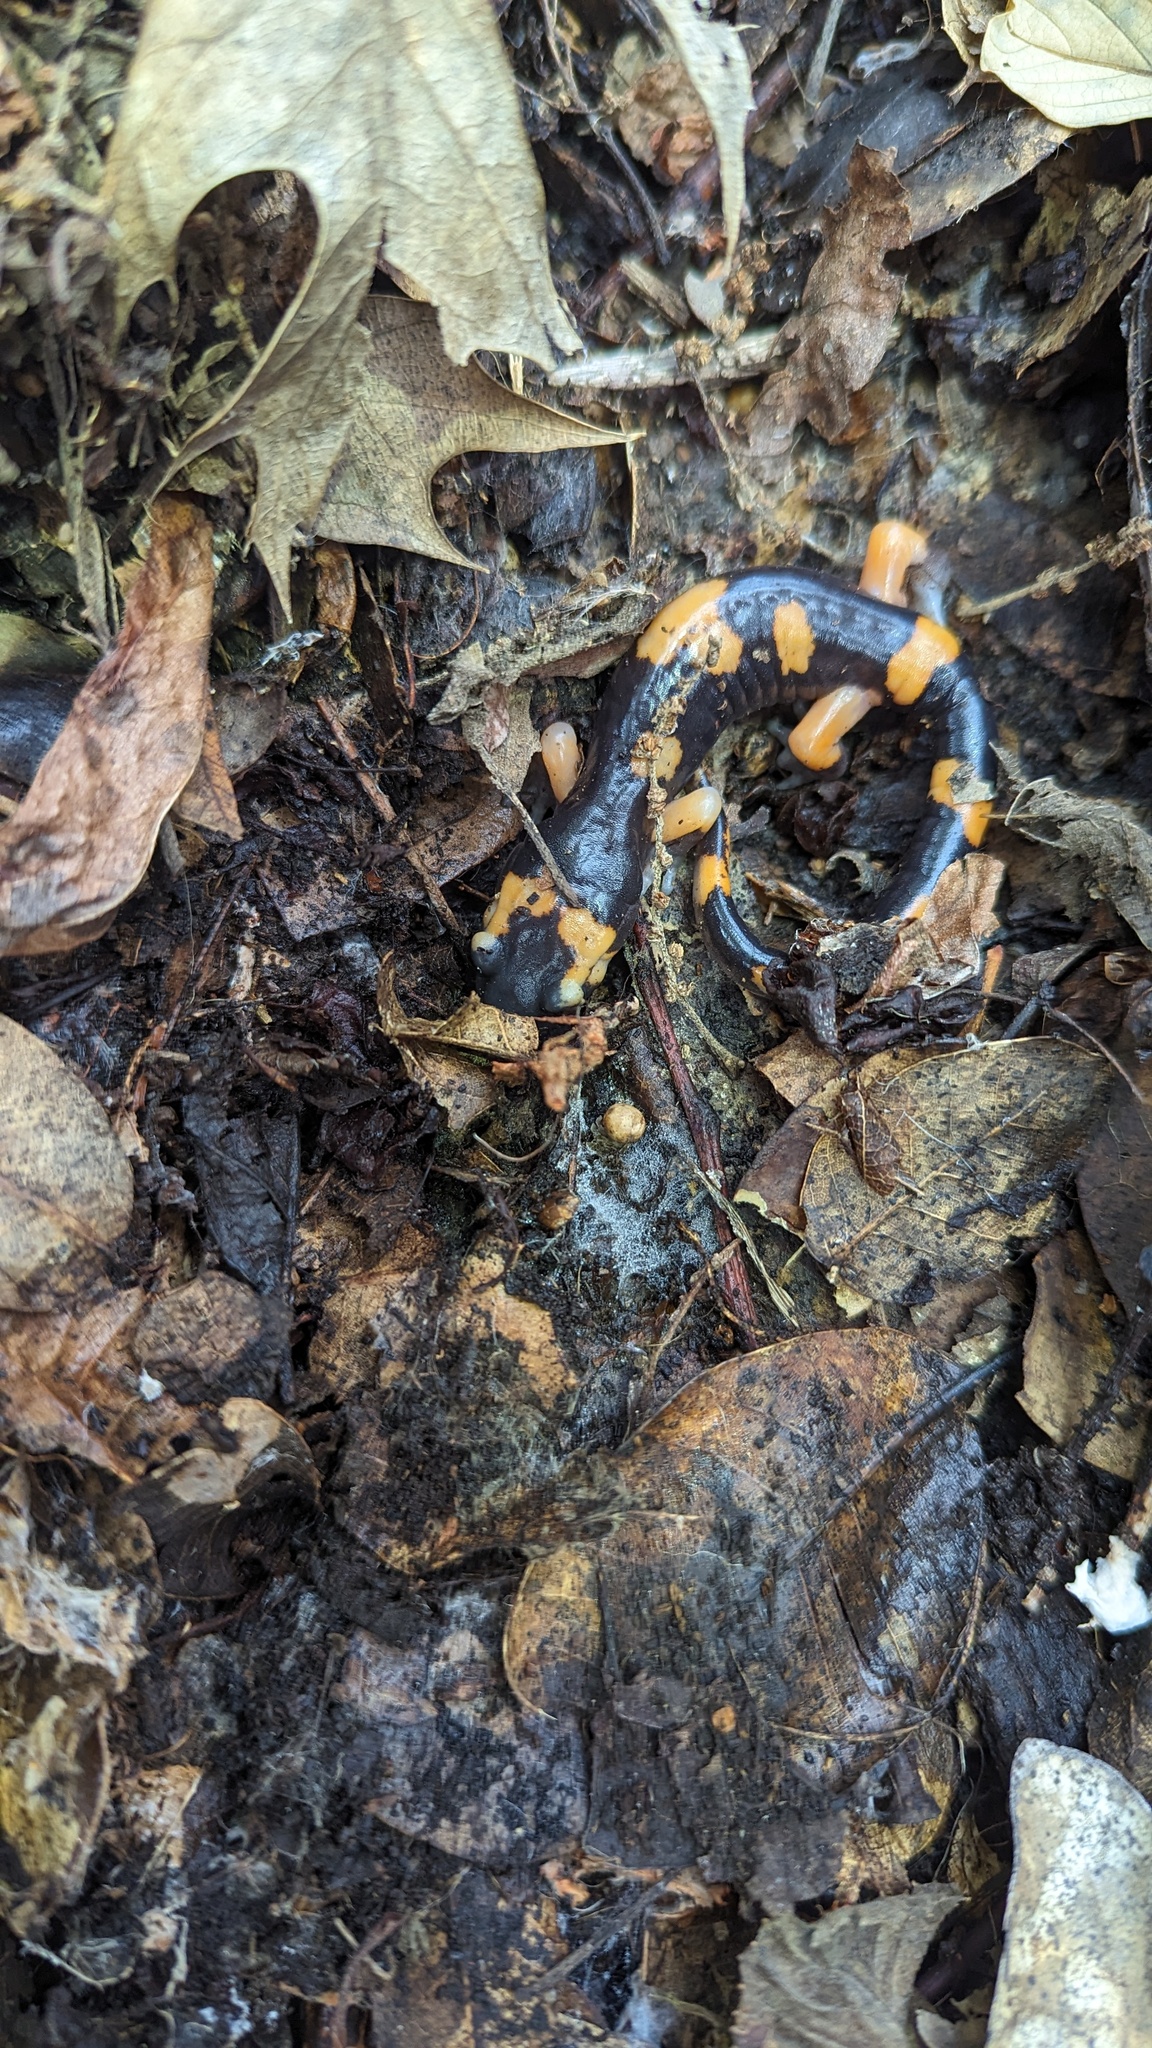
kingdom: Animalia
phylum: Chordata
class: Amphibia
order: Caudata
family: Plethodontidae
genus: Ensatina
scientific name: Ensatina eschscholtzii
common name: Ensatina
